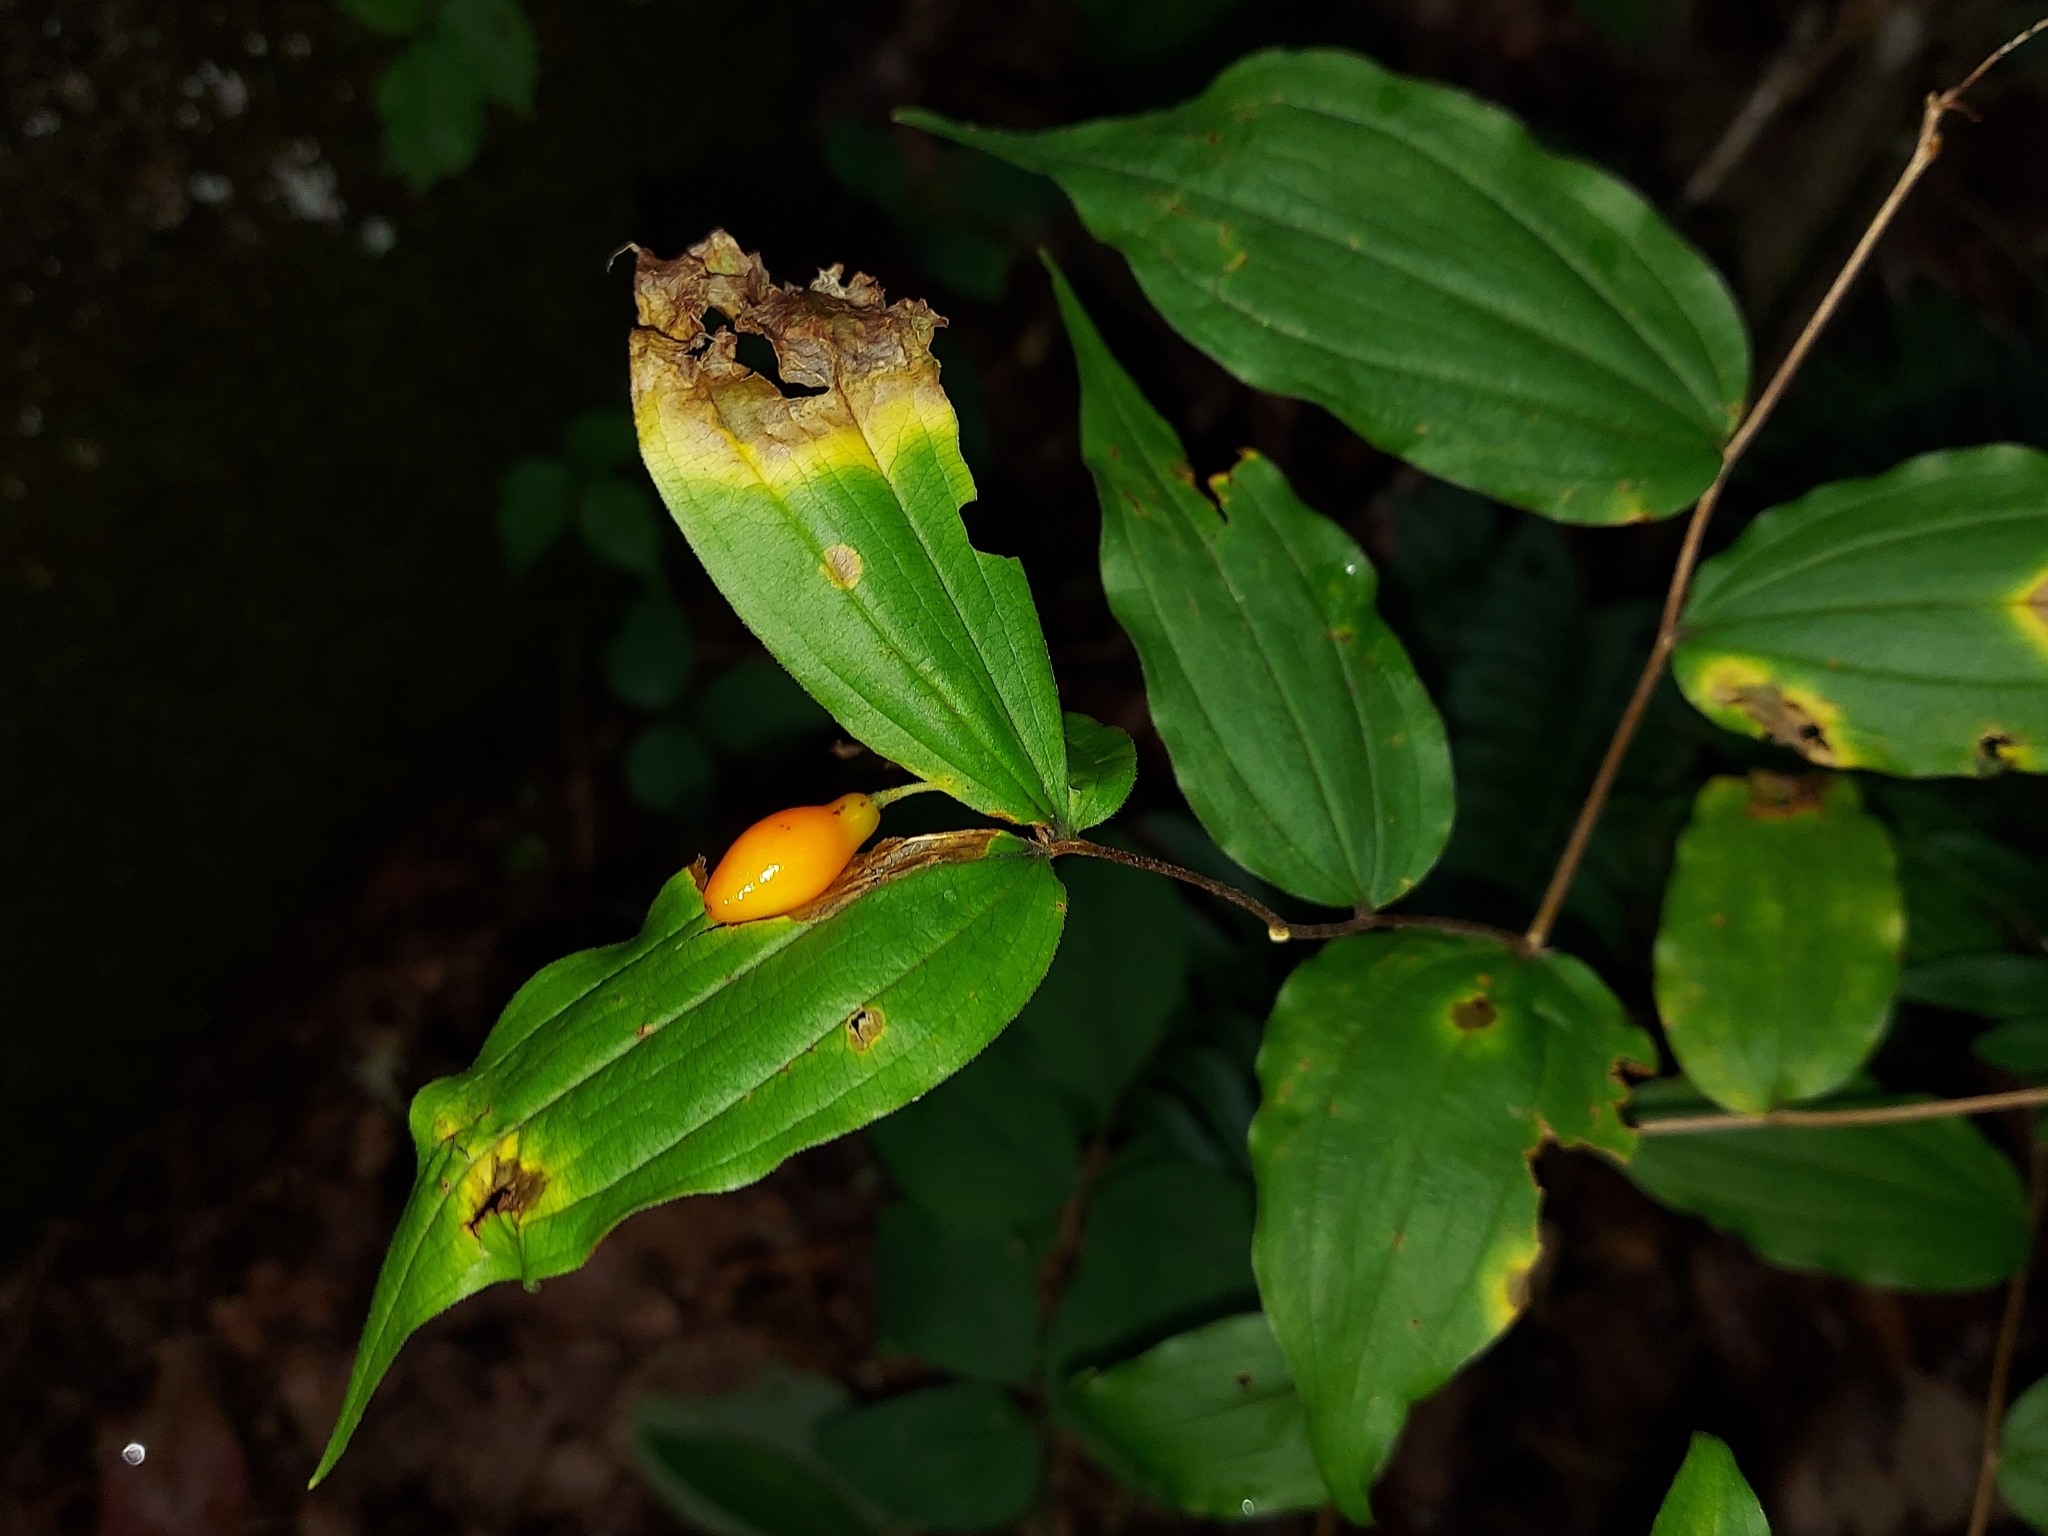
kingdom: Plantae
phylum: Tracheophyta
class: Liliopsida
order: Liliales
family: Liliaceae
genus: Prosartes
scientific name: Prosartes lanuginosa
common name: Hairy mandarin
